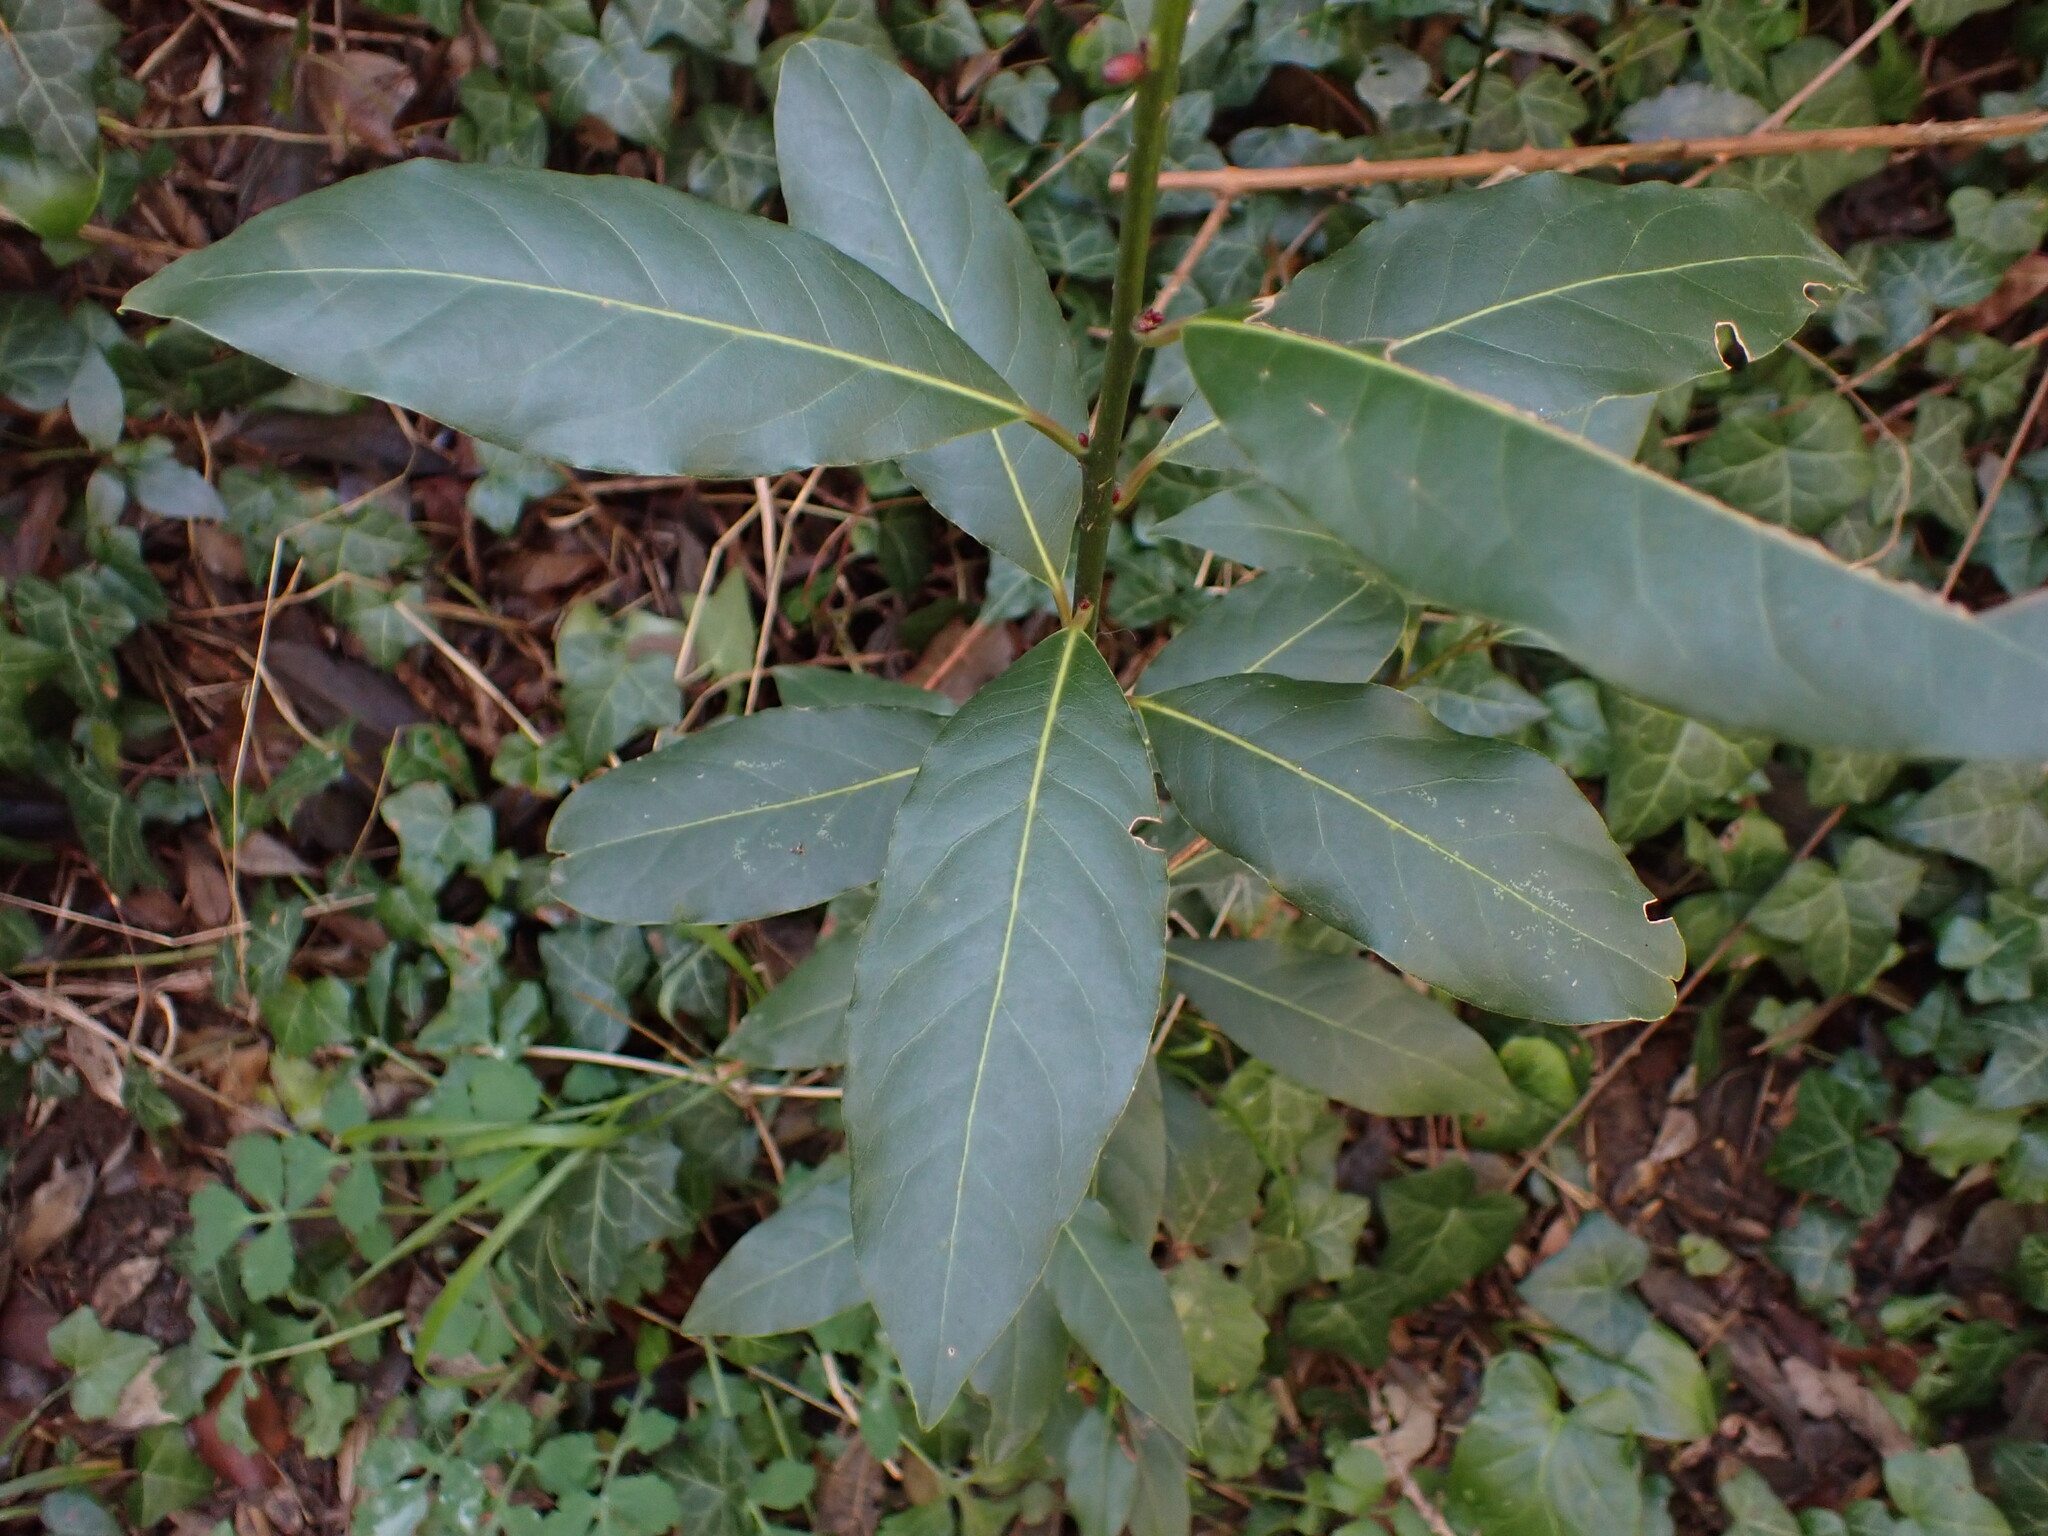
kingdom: Plantae
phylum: Tracheophyta
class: Magnoliopsida
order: Laurales
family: Lauraceae
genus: Laurus
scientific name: Laurus nobilis
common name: Bay
